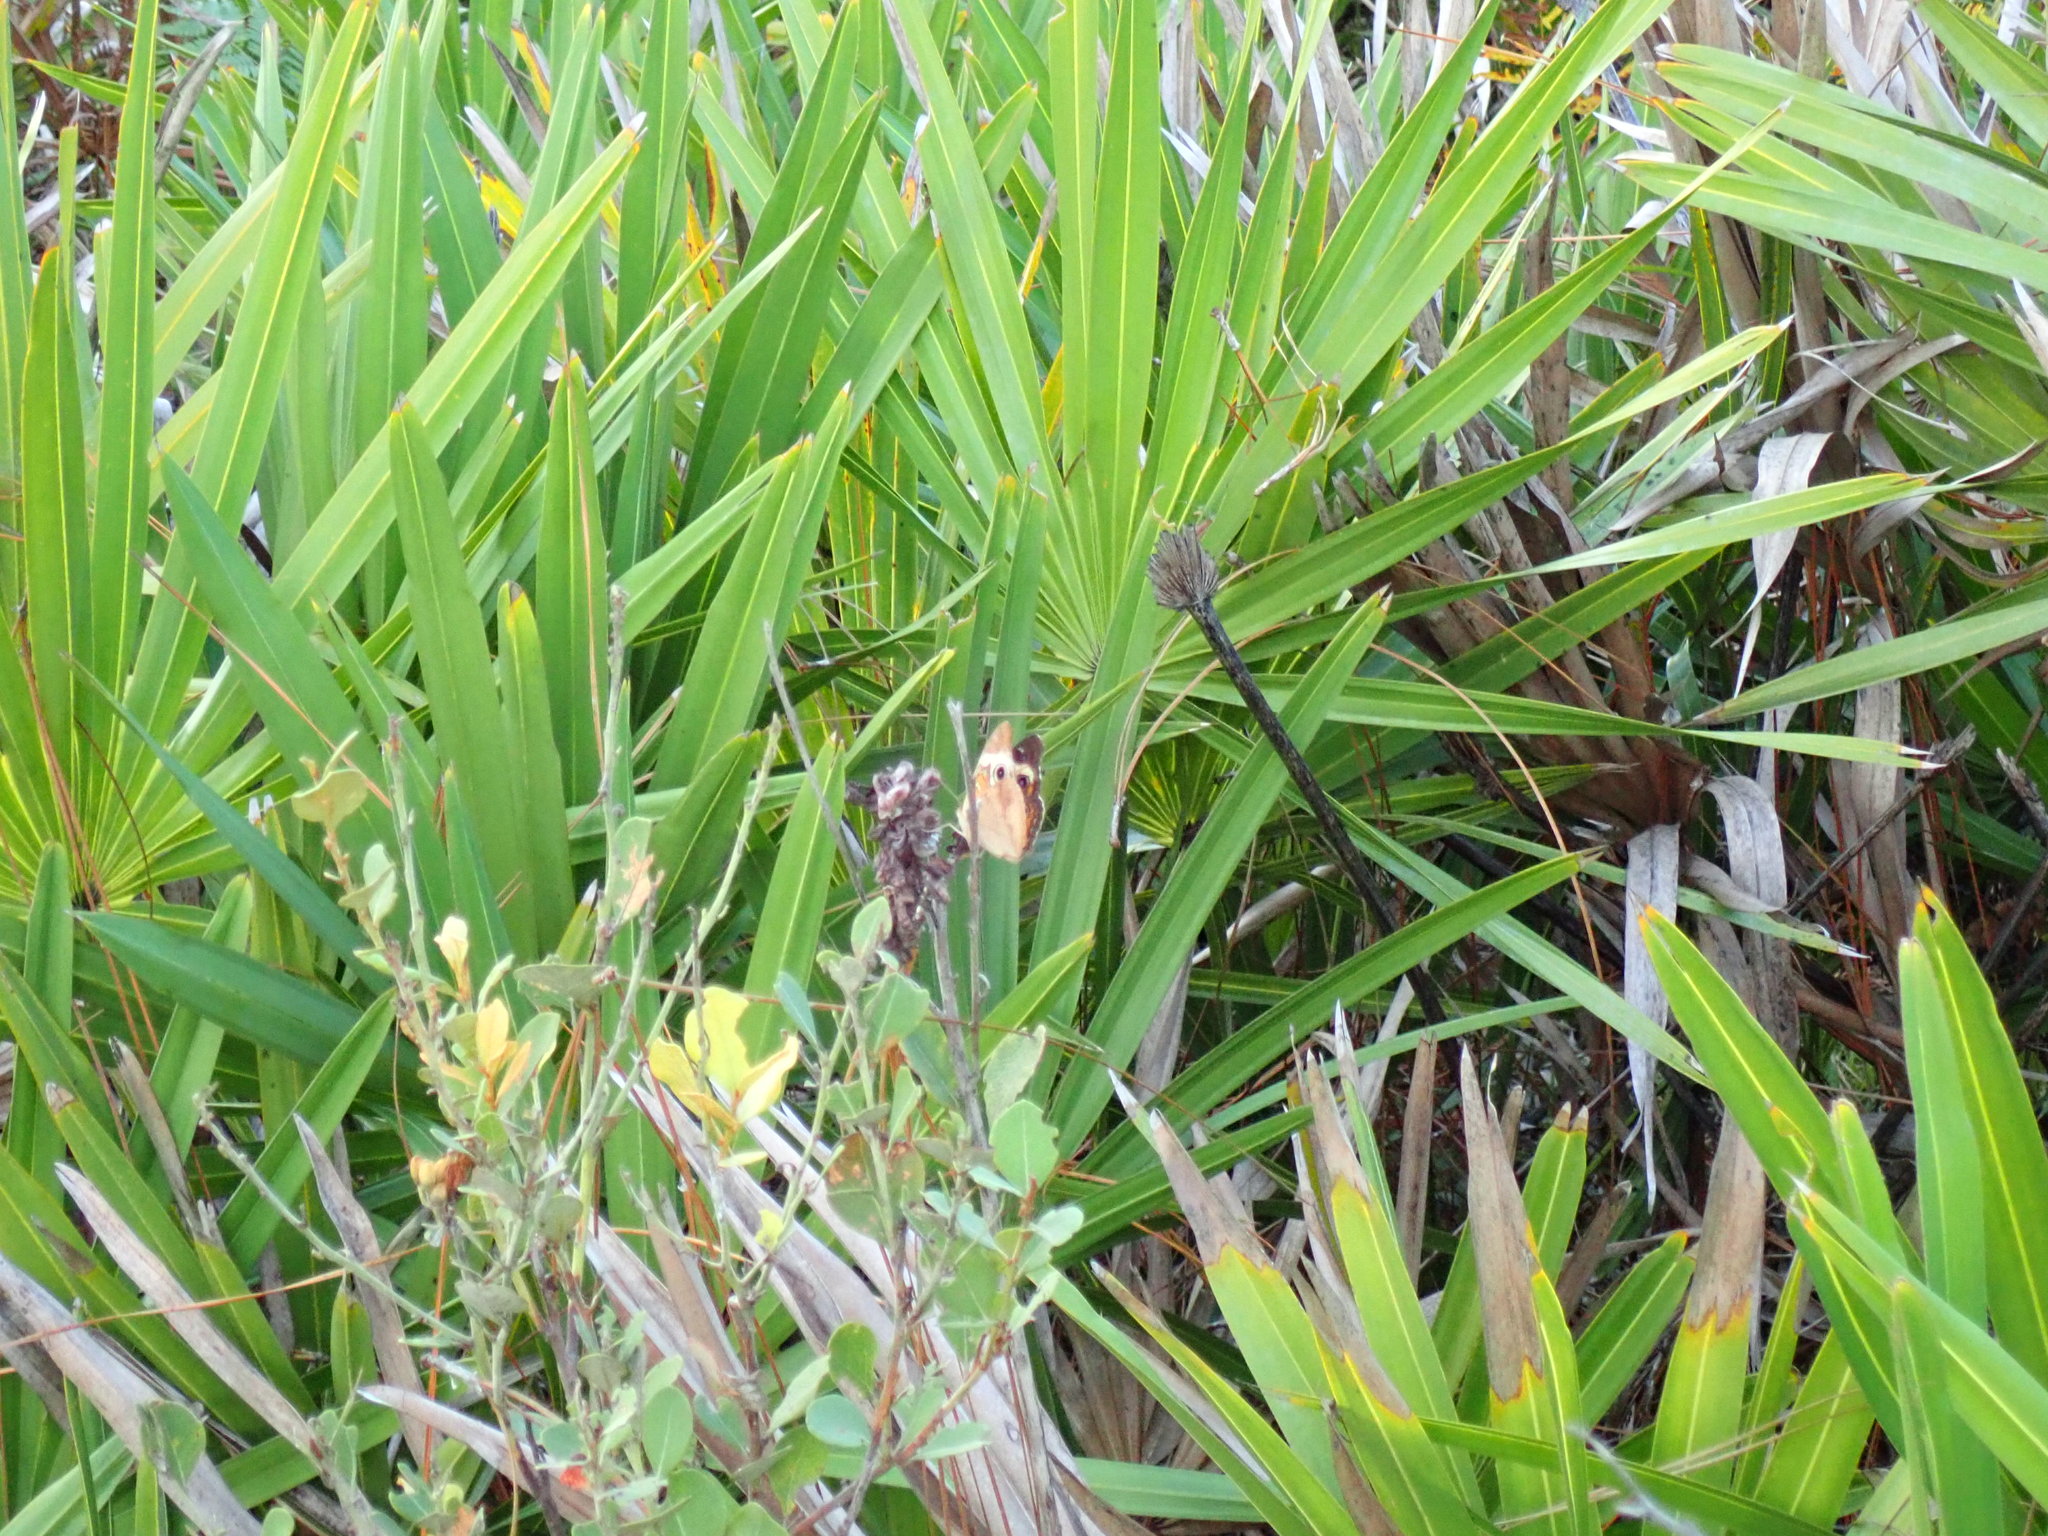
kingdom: Animalia
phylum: Arthropoda
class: Insecta
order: Lepidoptera
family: Nymphalidae
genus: Junonia
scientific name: Junonia coenia
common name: Common buckeye
